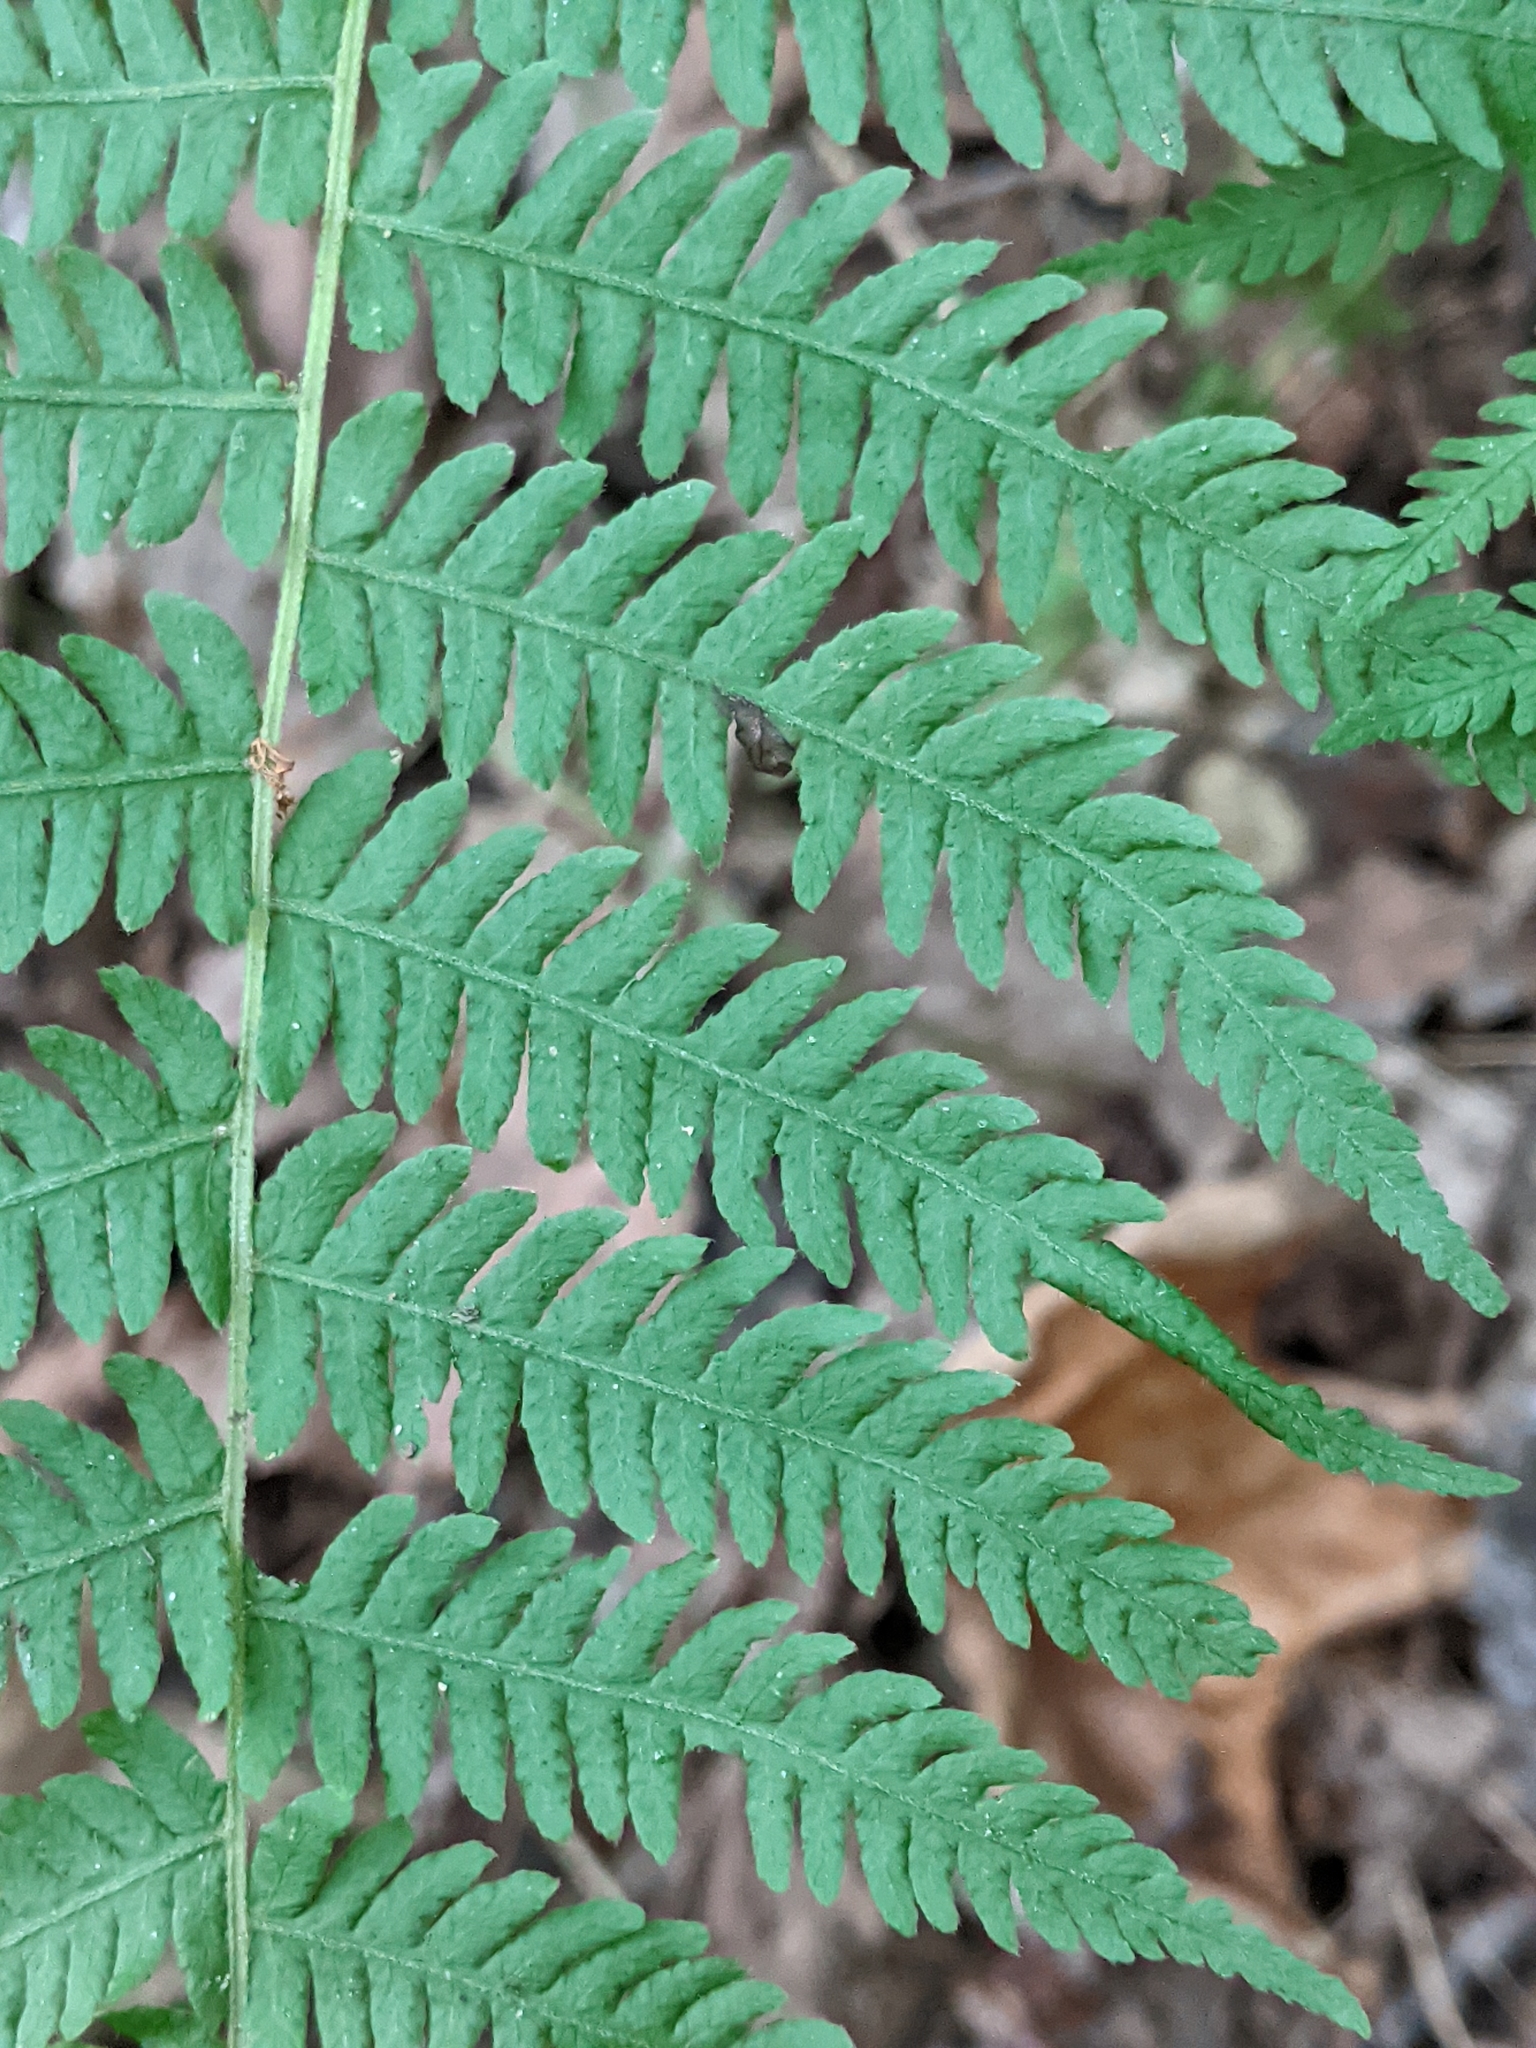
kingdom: Plantae
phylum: Tracheophyta
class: Polypodiopsida
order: Polypodiales
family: Thelypteridaceae
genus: Amauropelta
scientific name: Amauropelta noveboracensis
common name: New york fern
